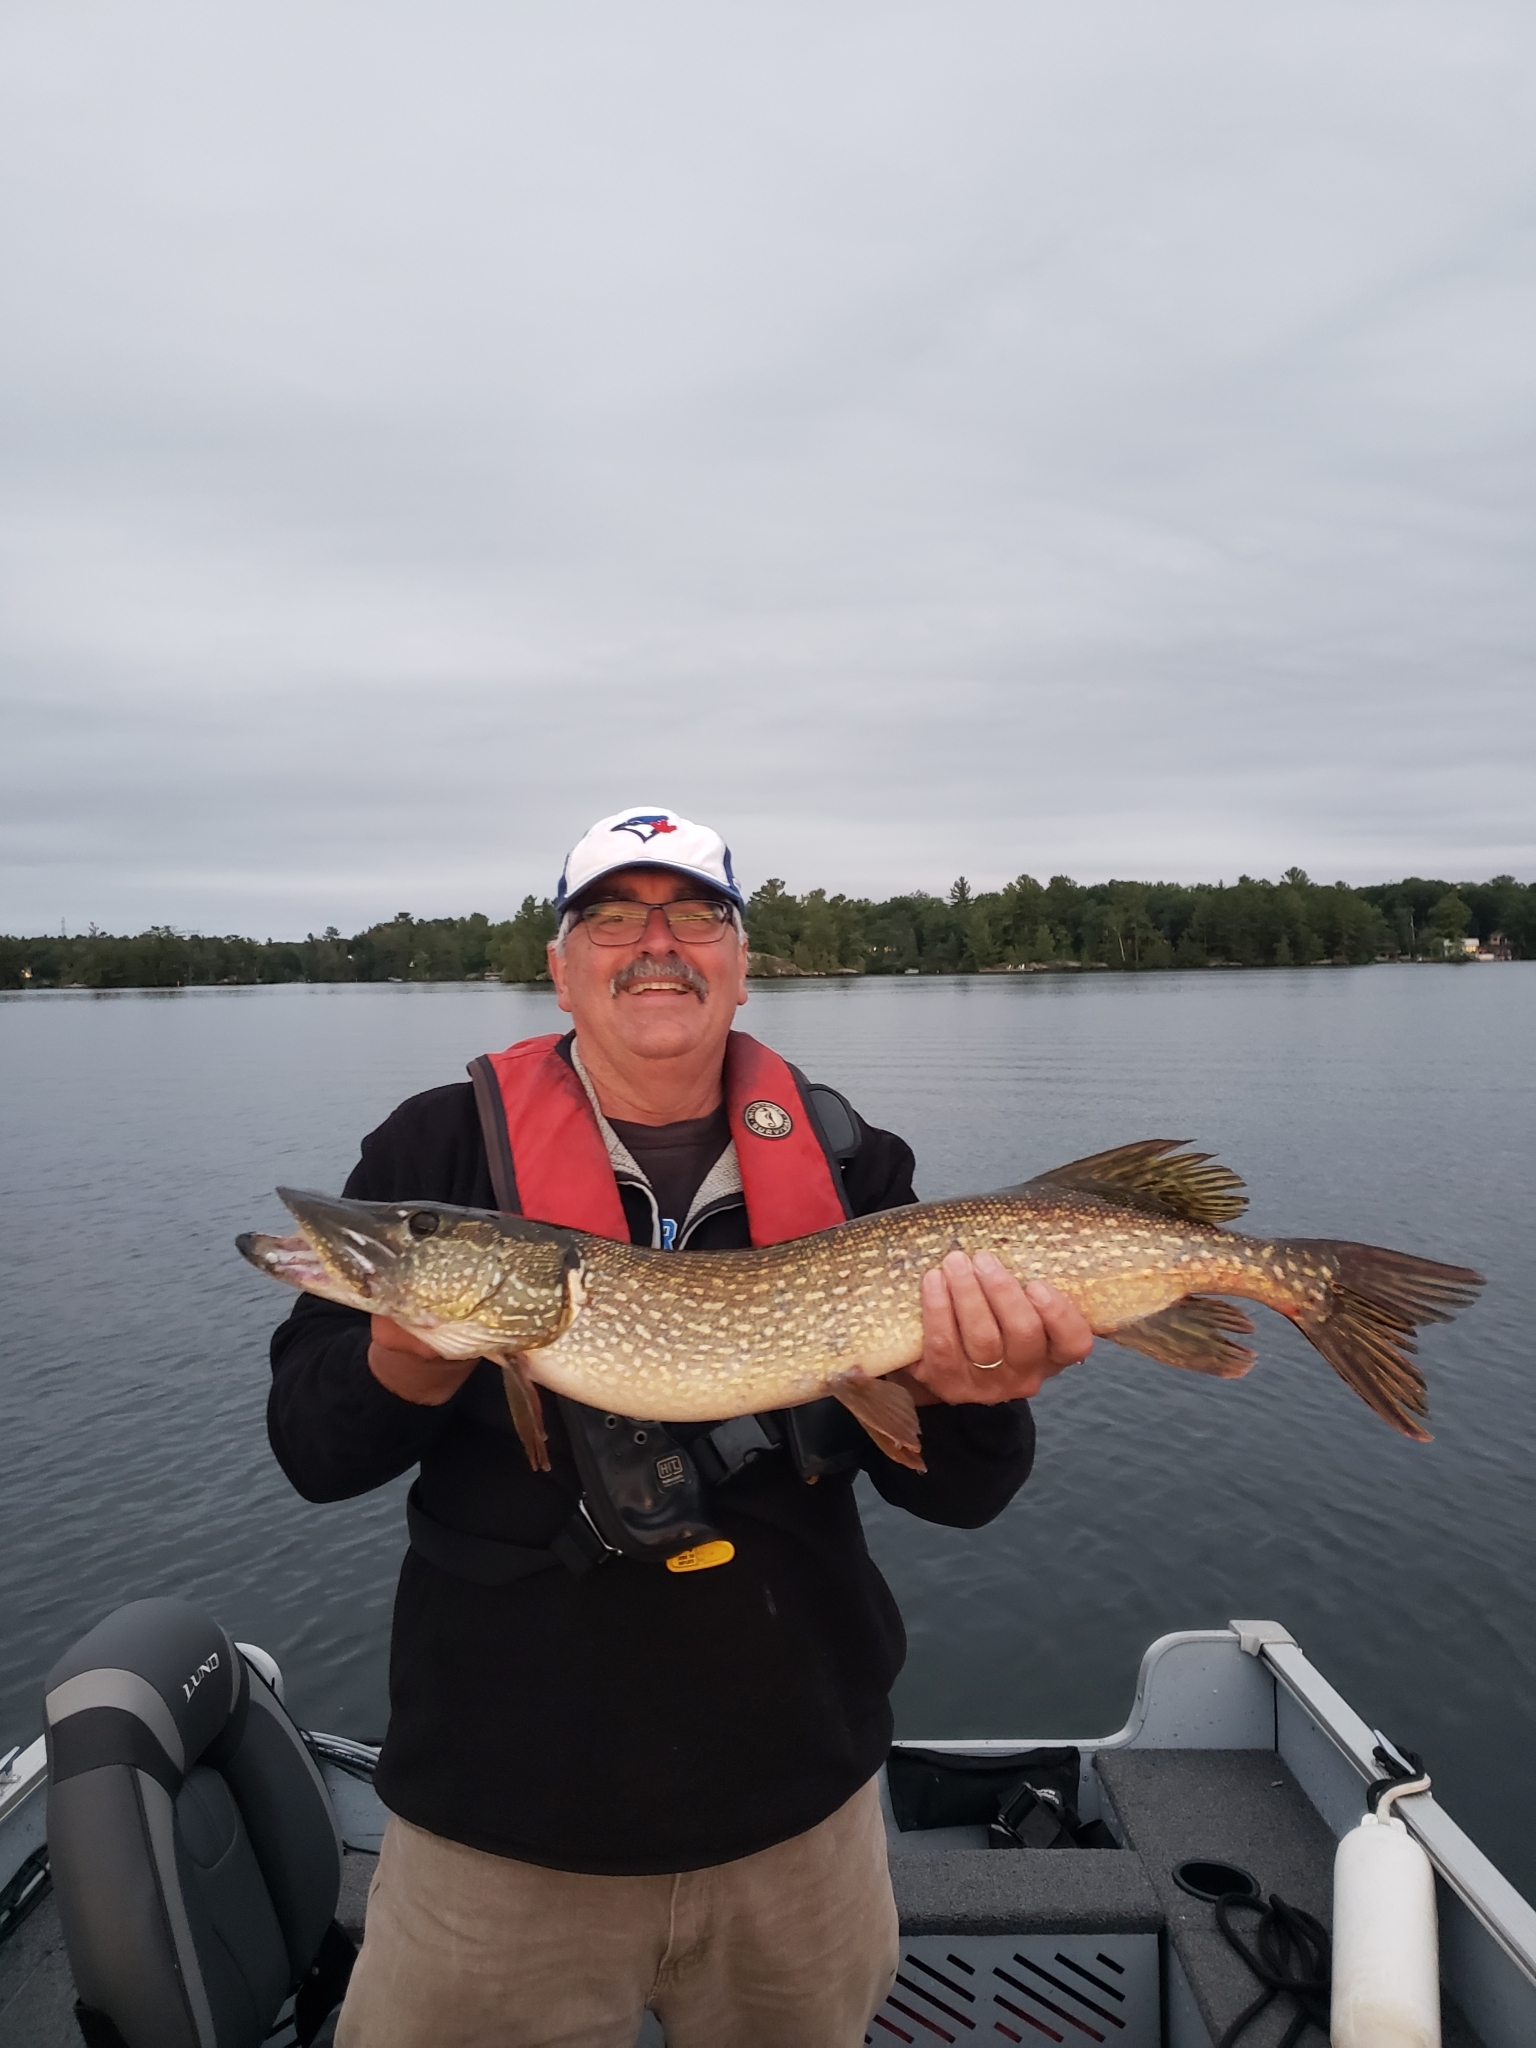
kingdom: Animalia
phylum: Chordata
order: Esociformes
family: Esocidae
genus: Esox
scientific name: Esox lucius
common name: Northern pike
